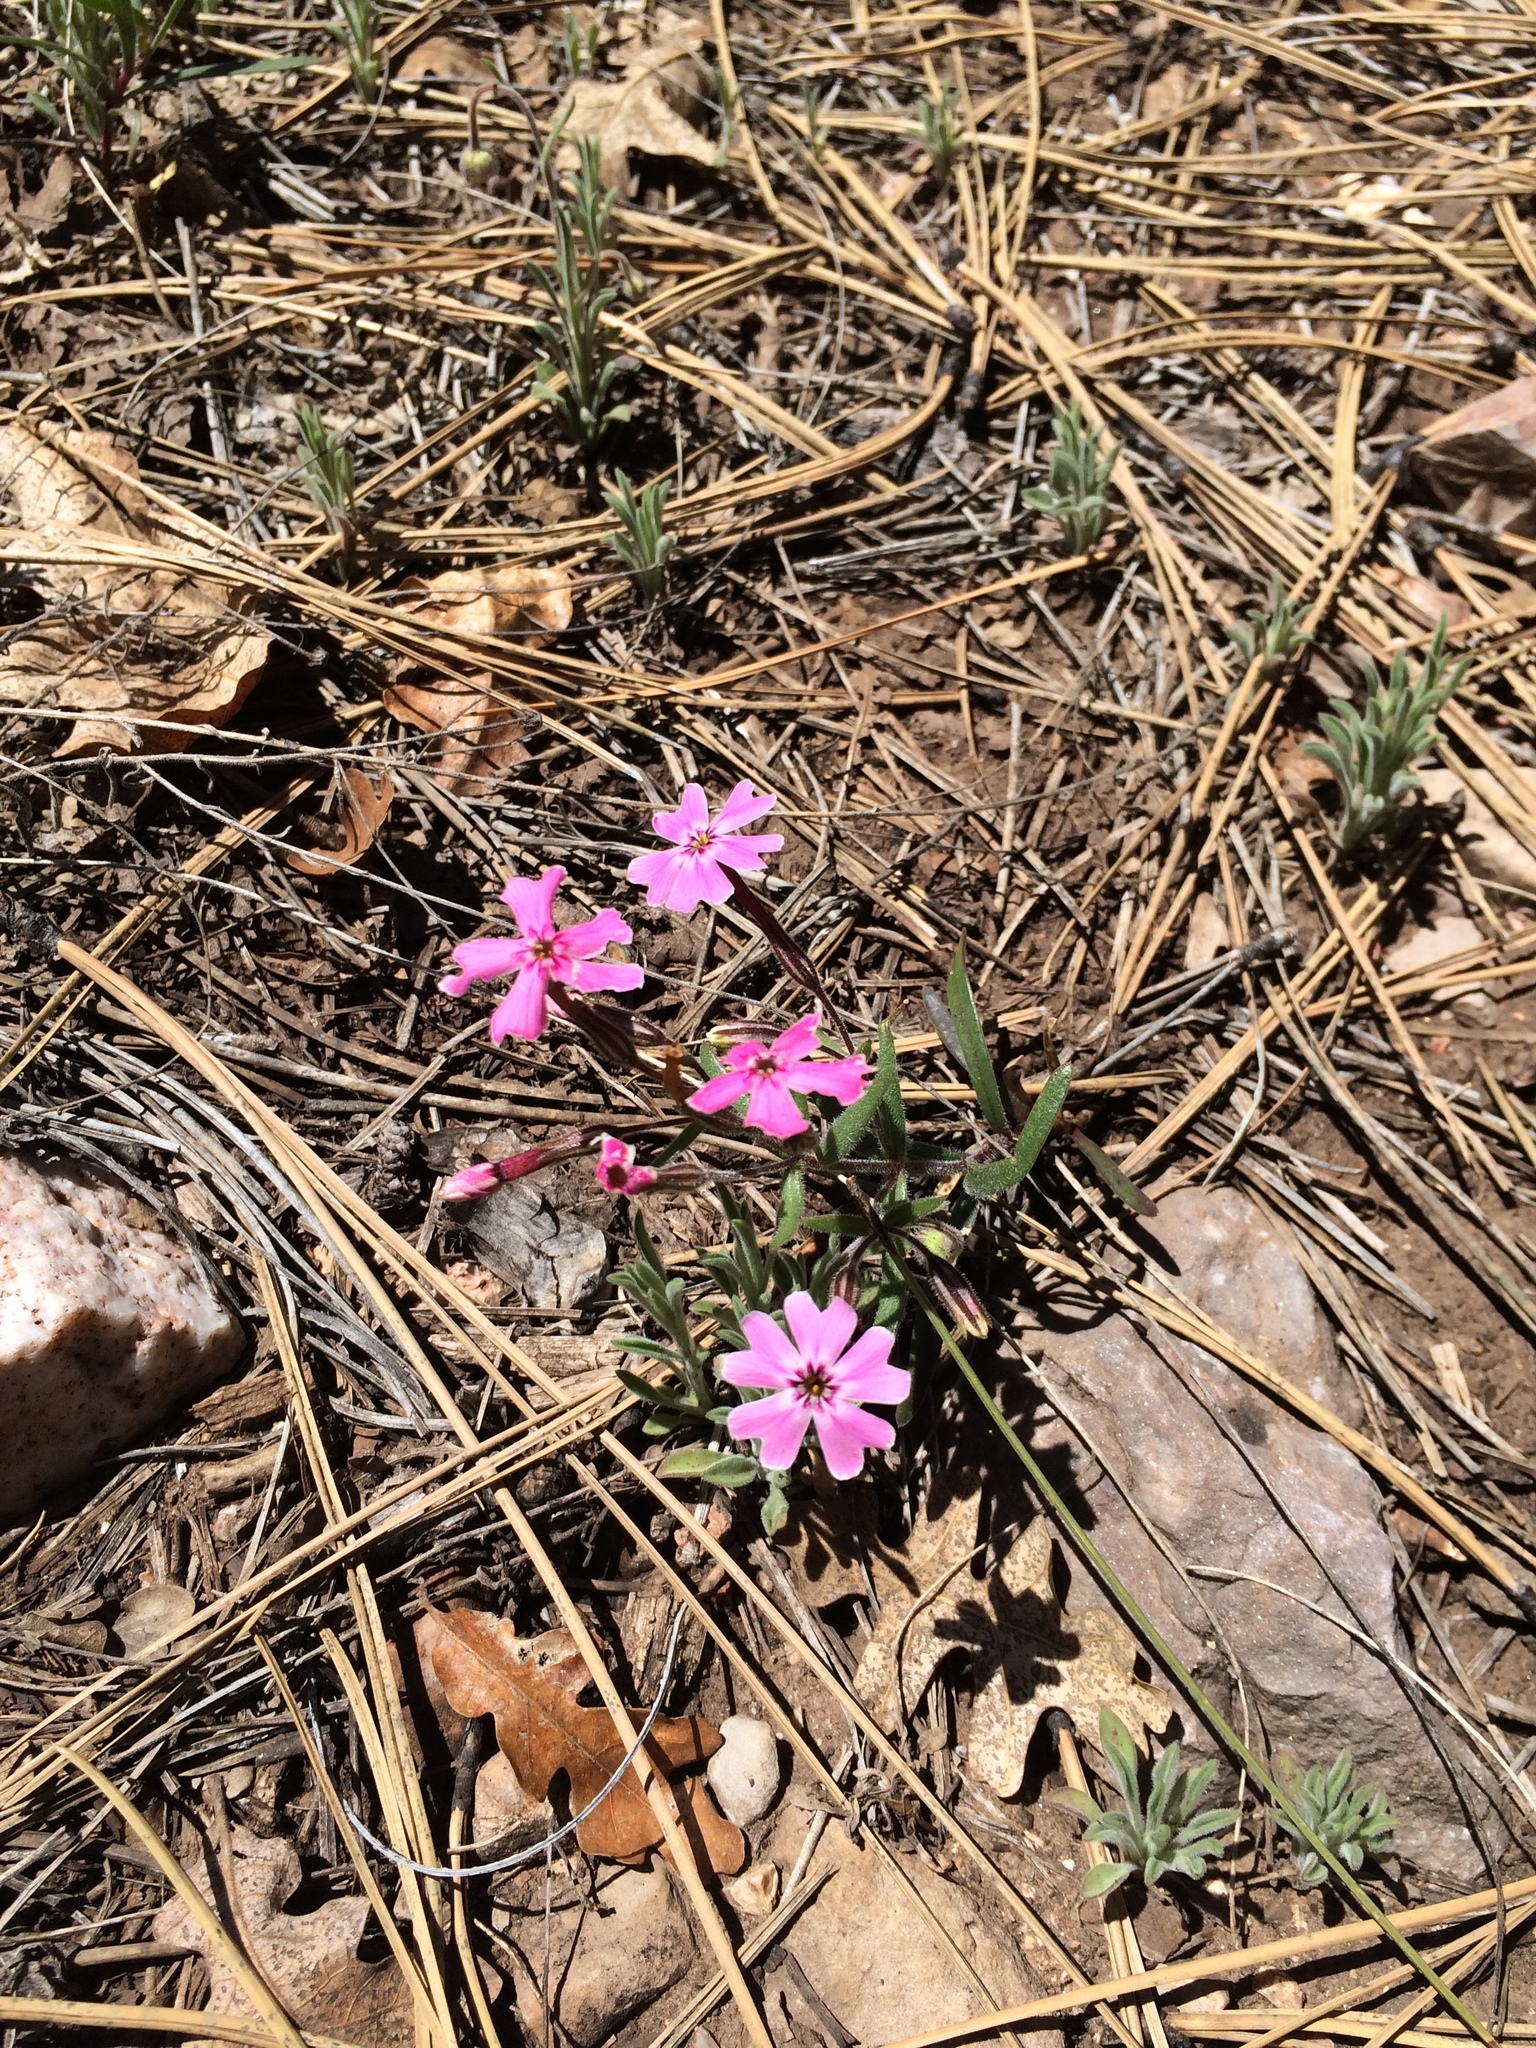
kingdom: Plantae
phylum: Tracheophyta
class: Magnoliopsida
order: Ericales
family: Polemoniaceae
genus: Phlox
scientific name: Phlox amabilis
